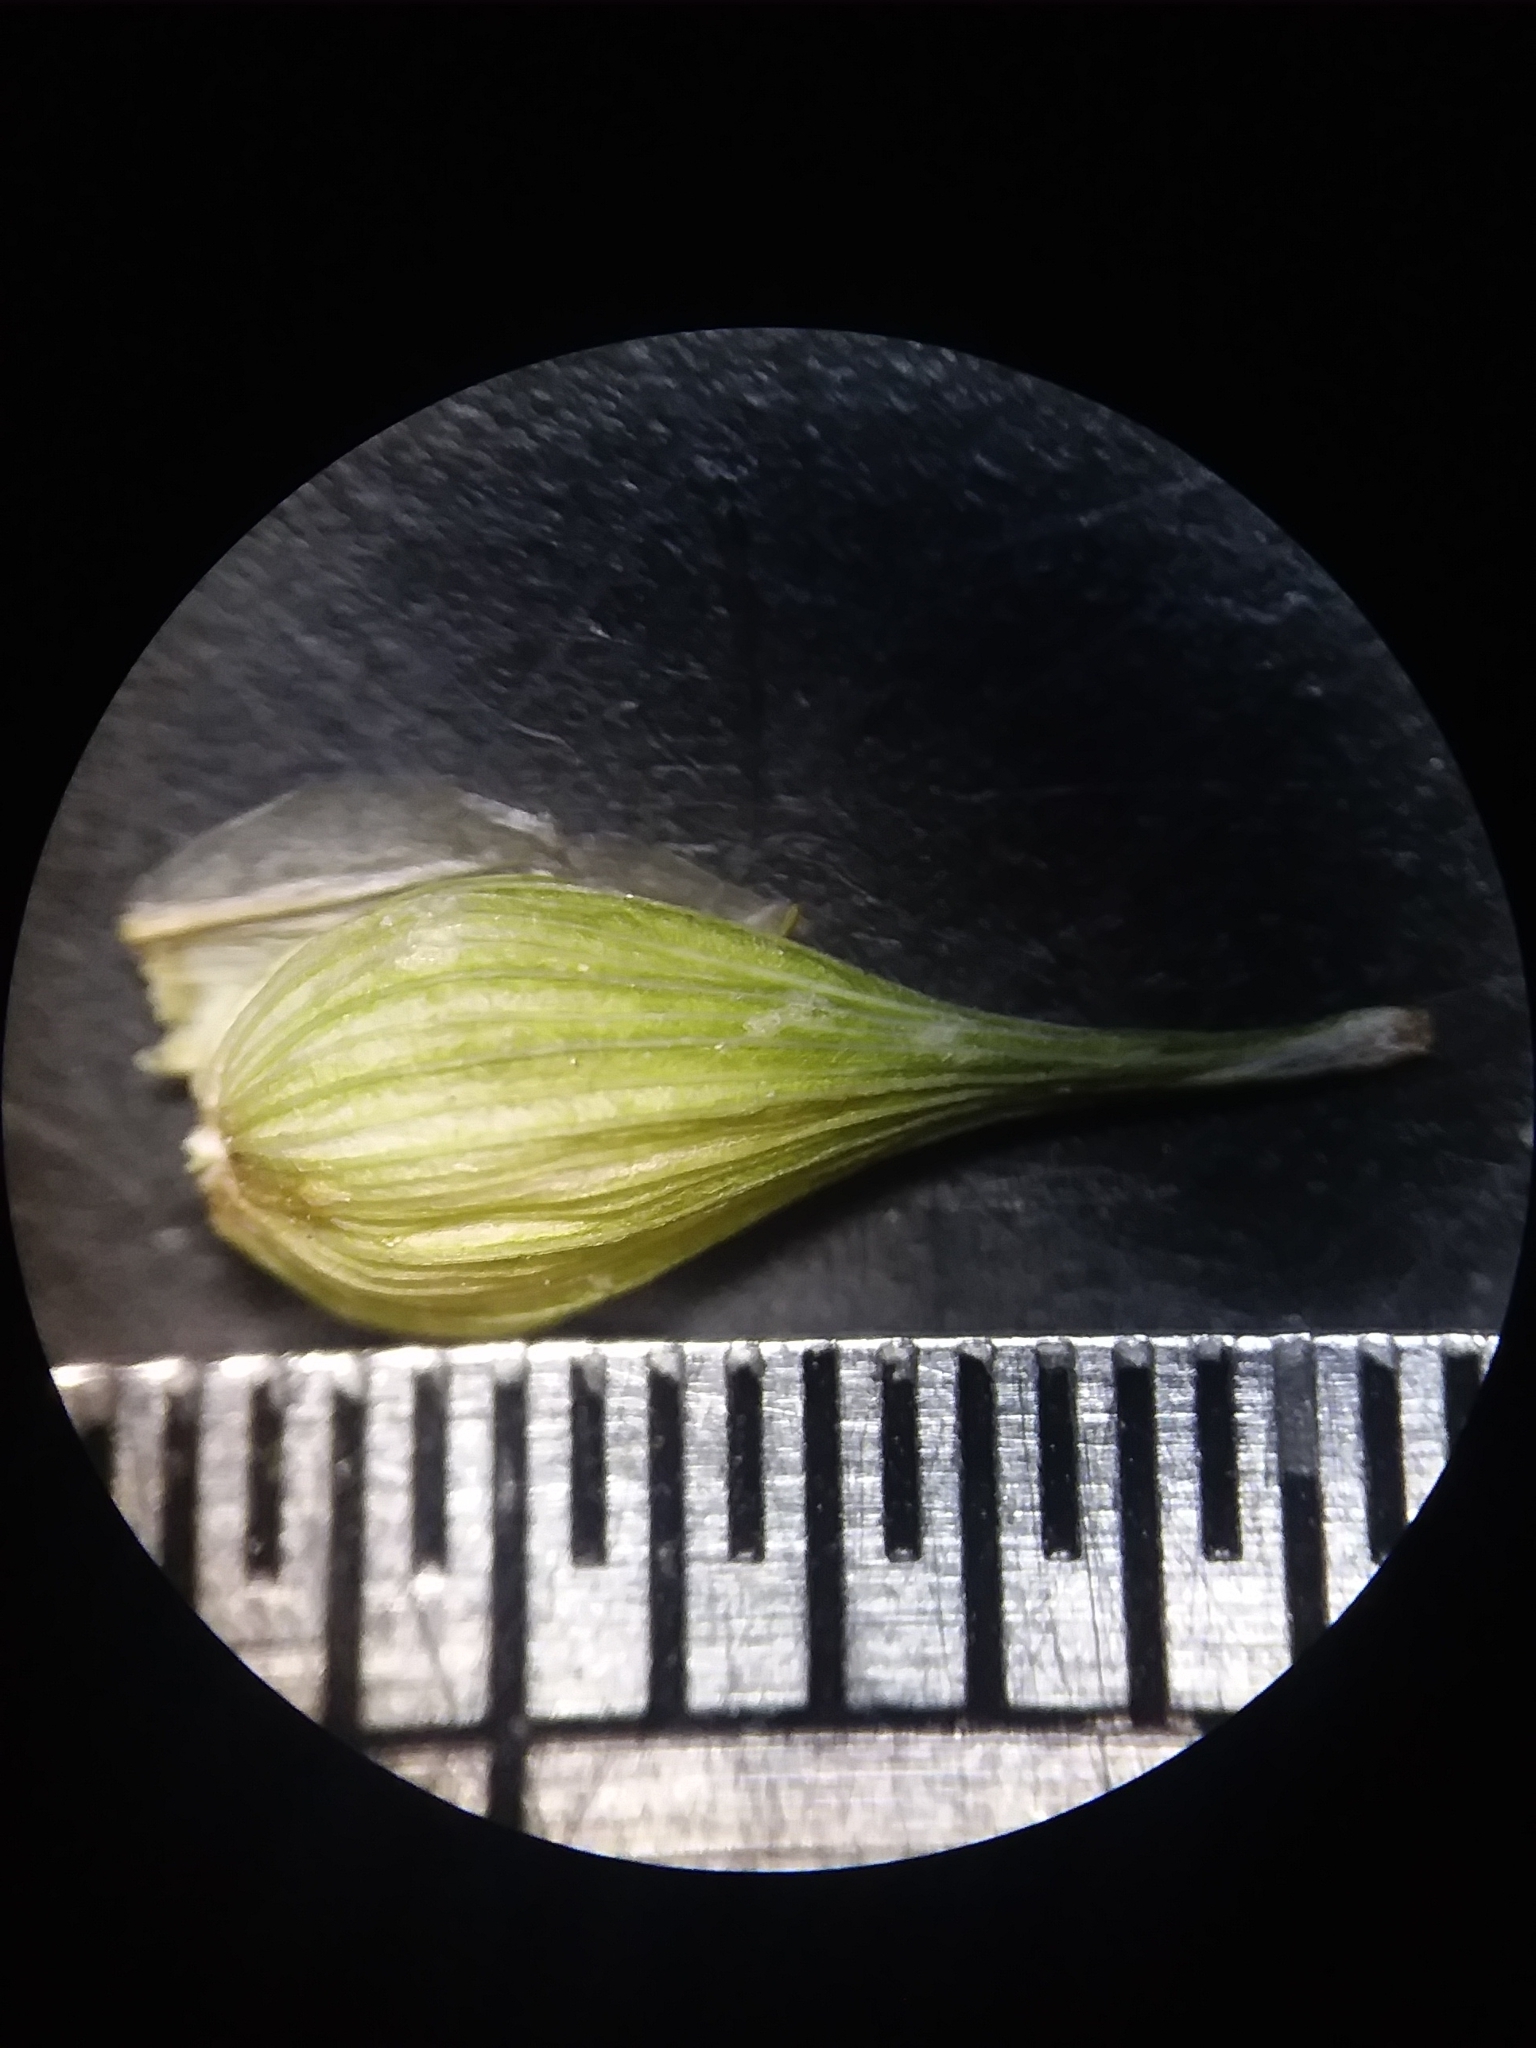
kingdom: Plantae
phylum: Tracheophyta
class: Liliopsida
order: Poales
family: Cyperaceae
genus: Carex
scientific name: Carex turgescens
